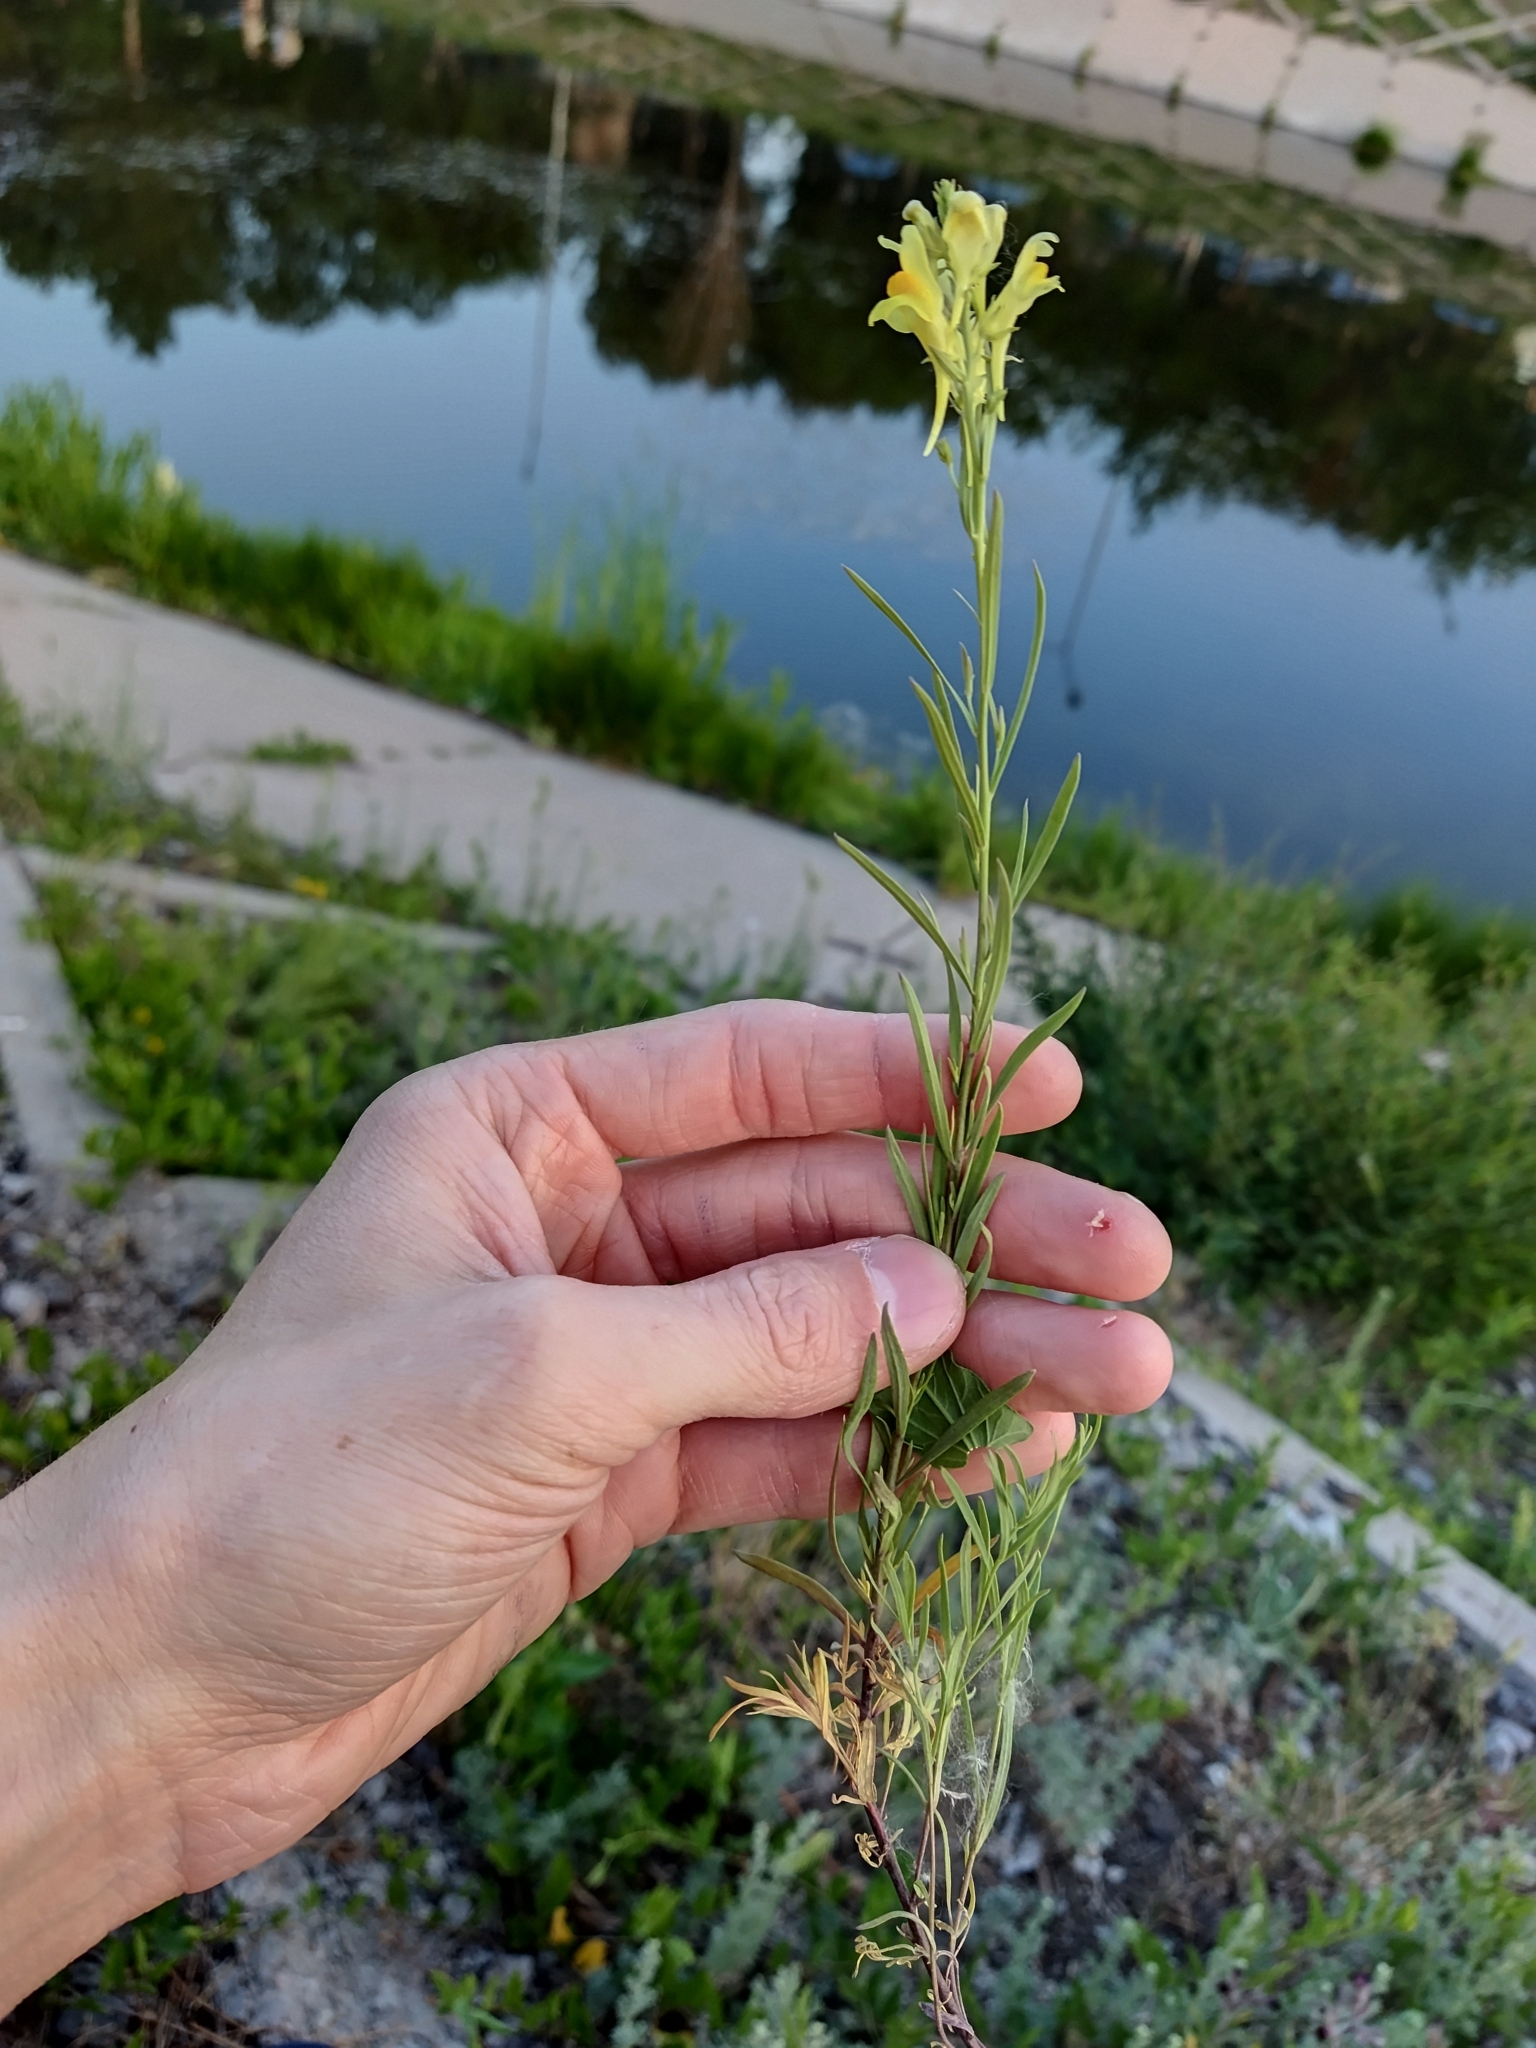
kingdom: Plantae
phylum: Tracheophyta
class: Magnoliopsida
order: Lamiales
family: Plantaginaceae
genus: Linaria
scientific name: Linaria vulgaris
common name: Butter and eggs
